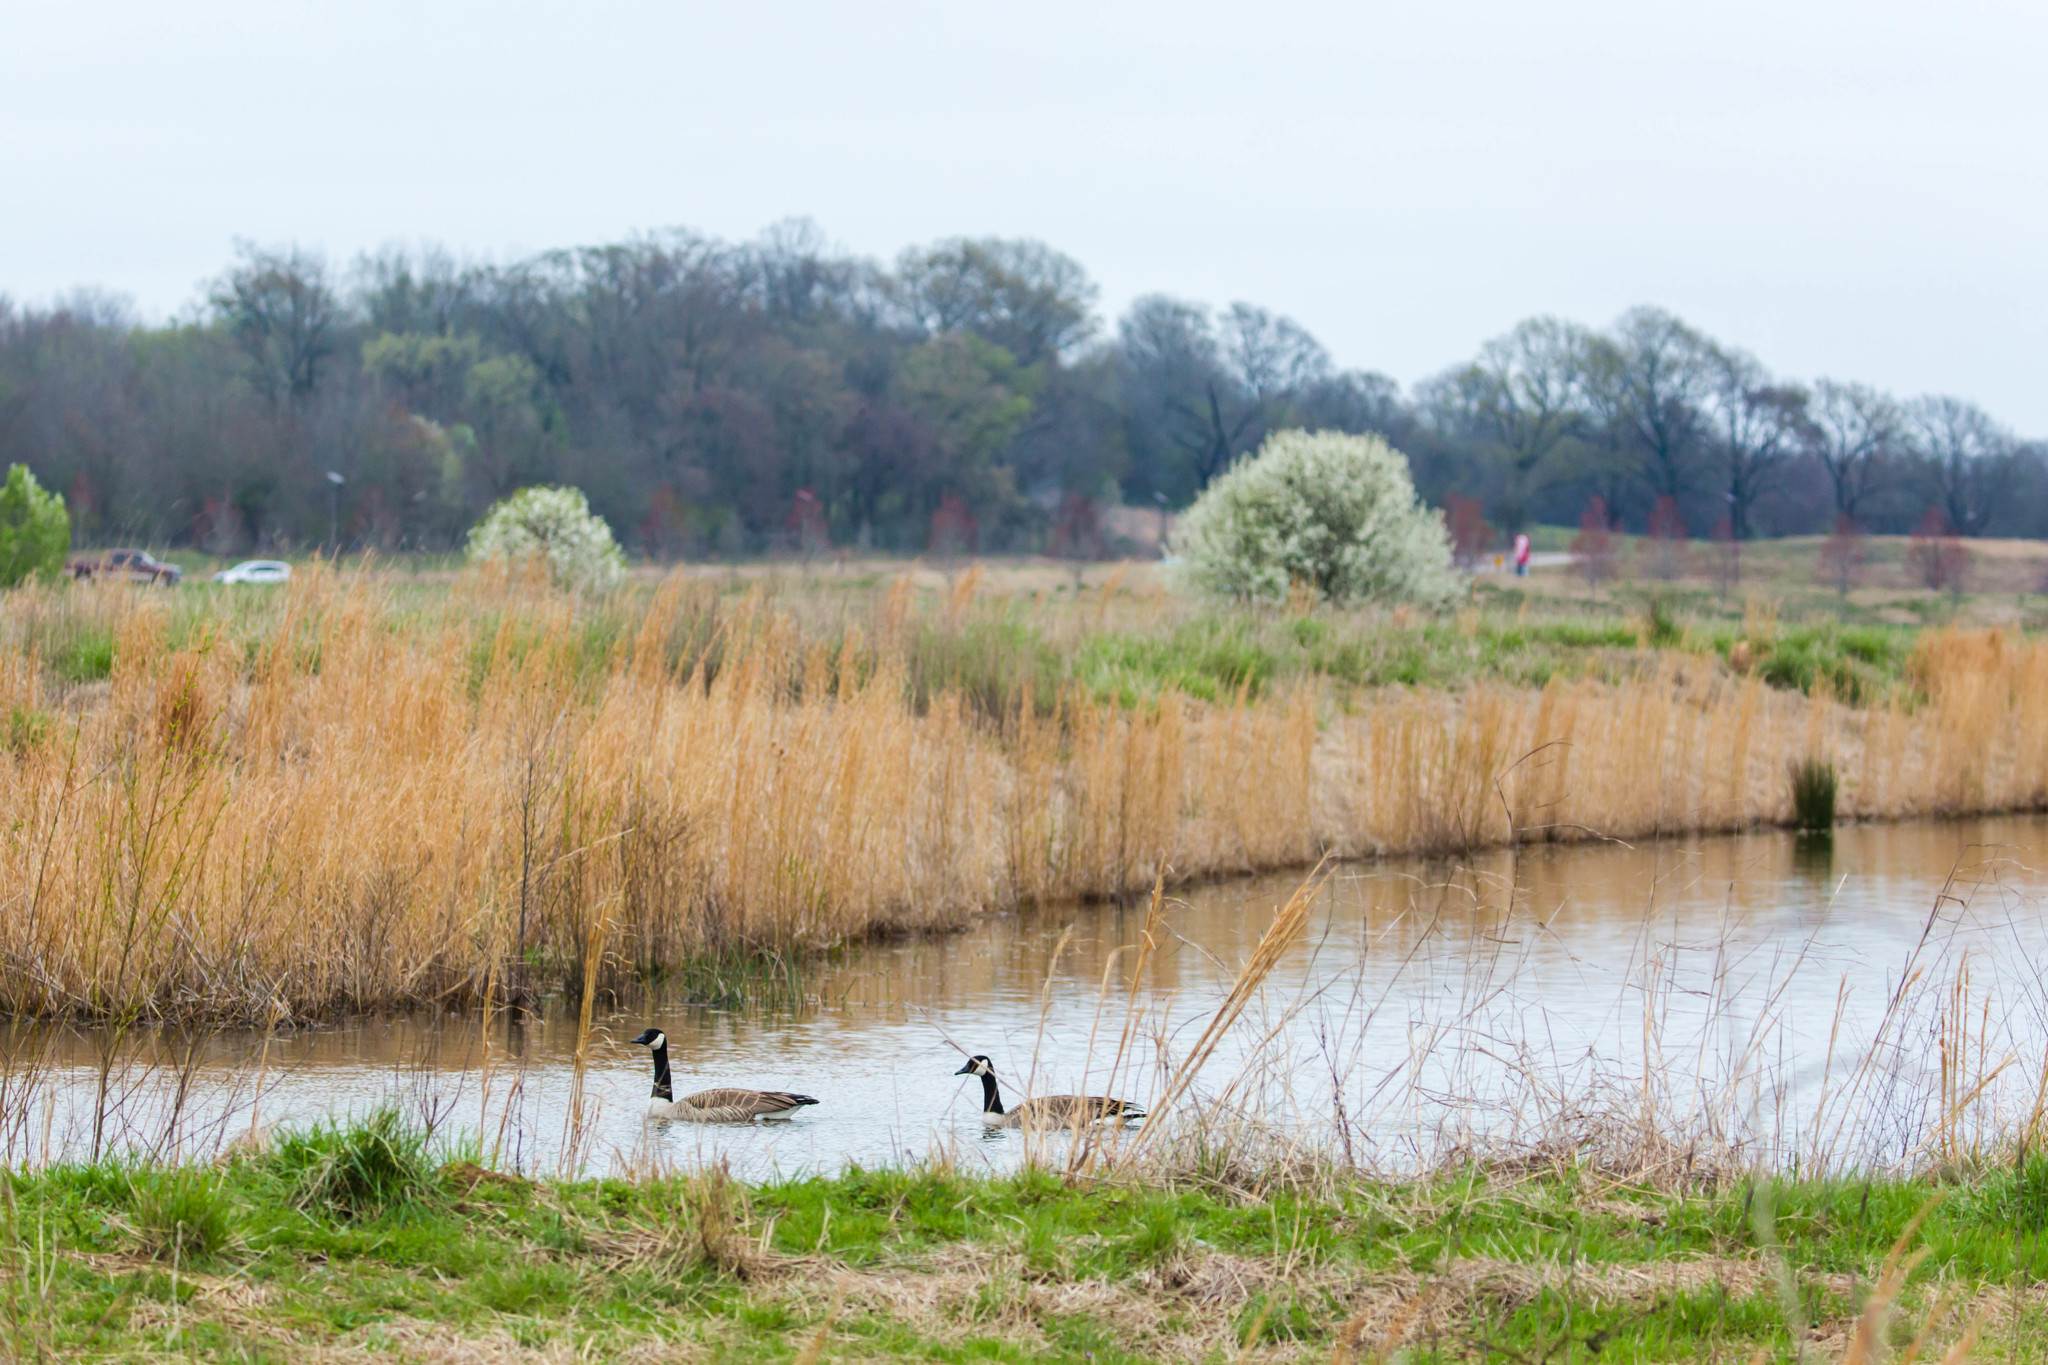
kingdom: Animalia
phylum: Chordata
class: Aves
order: Anseriformes
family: Anatidae
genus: Branta
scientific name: Branta canadensis
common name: Canada goose
